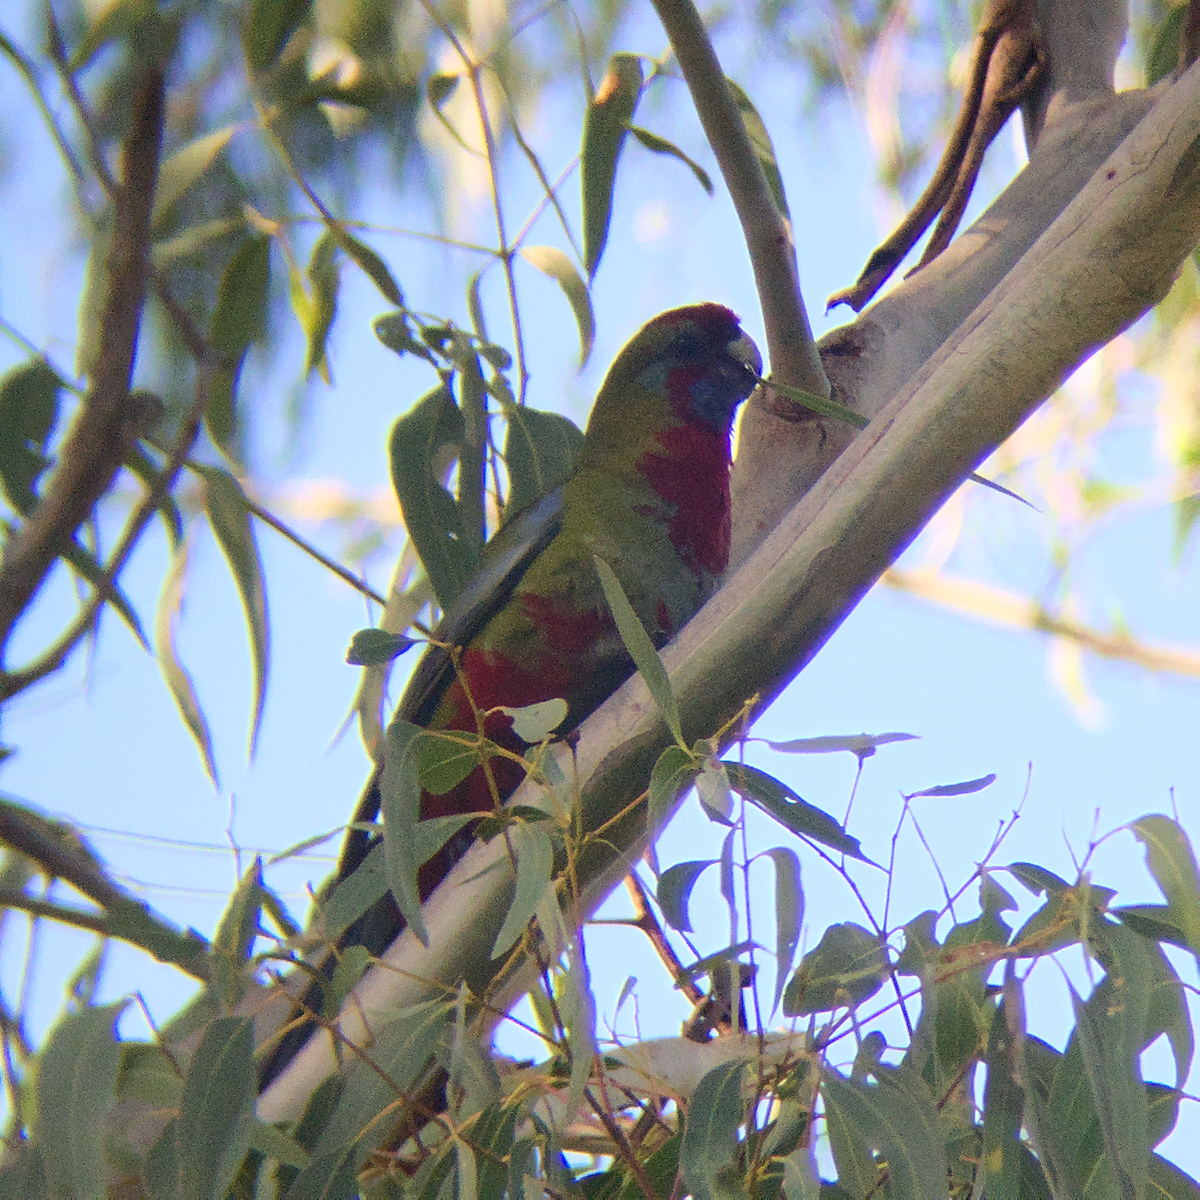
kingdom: Animalia
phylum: Chordata
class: Aves
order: Psittaciformes
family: Psittacidae
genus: Platycercus
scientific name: Platycercus elegans
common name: Crimson rosella
